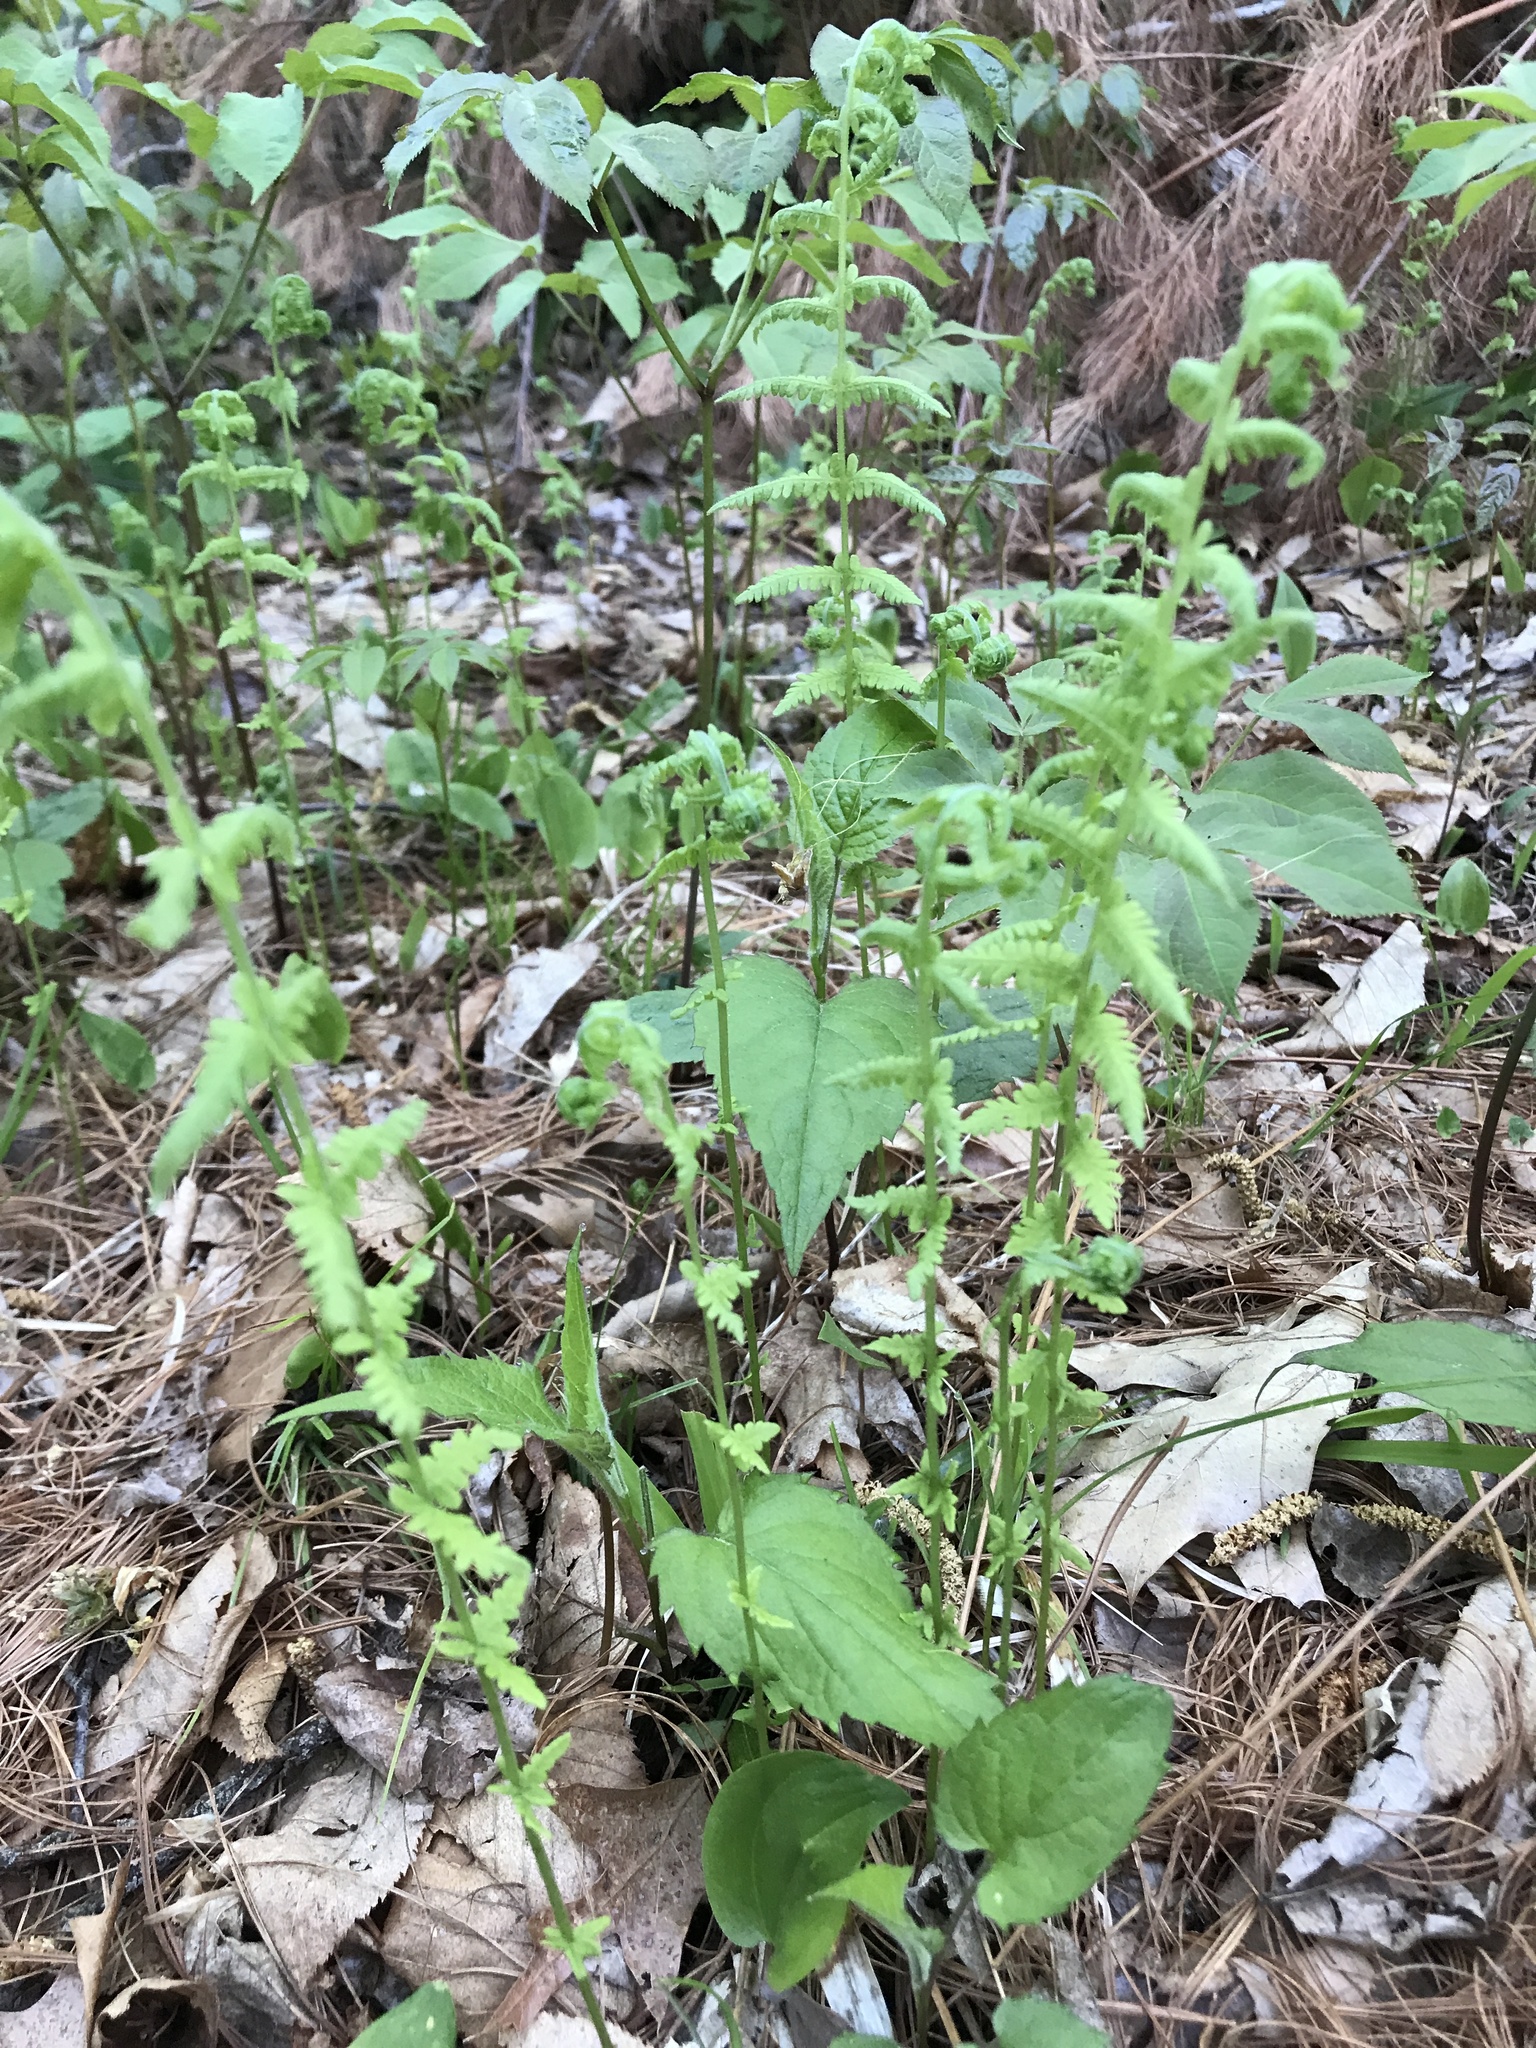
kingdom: Plantae
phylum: Tracheophyta
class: Polypodiopsida
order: Polypodiales
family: Thelypteridaceae
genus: Amauropelta
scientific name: Amauropelta noveboracensis
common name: New york fern
